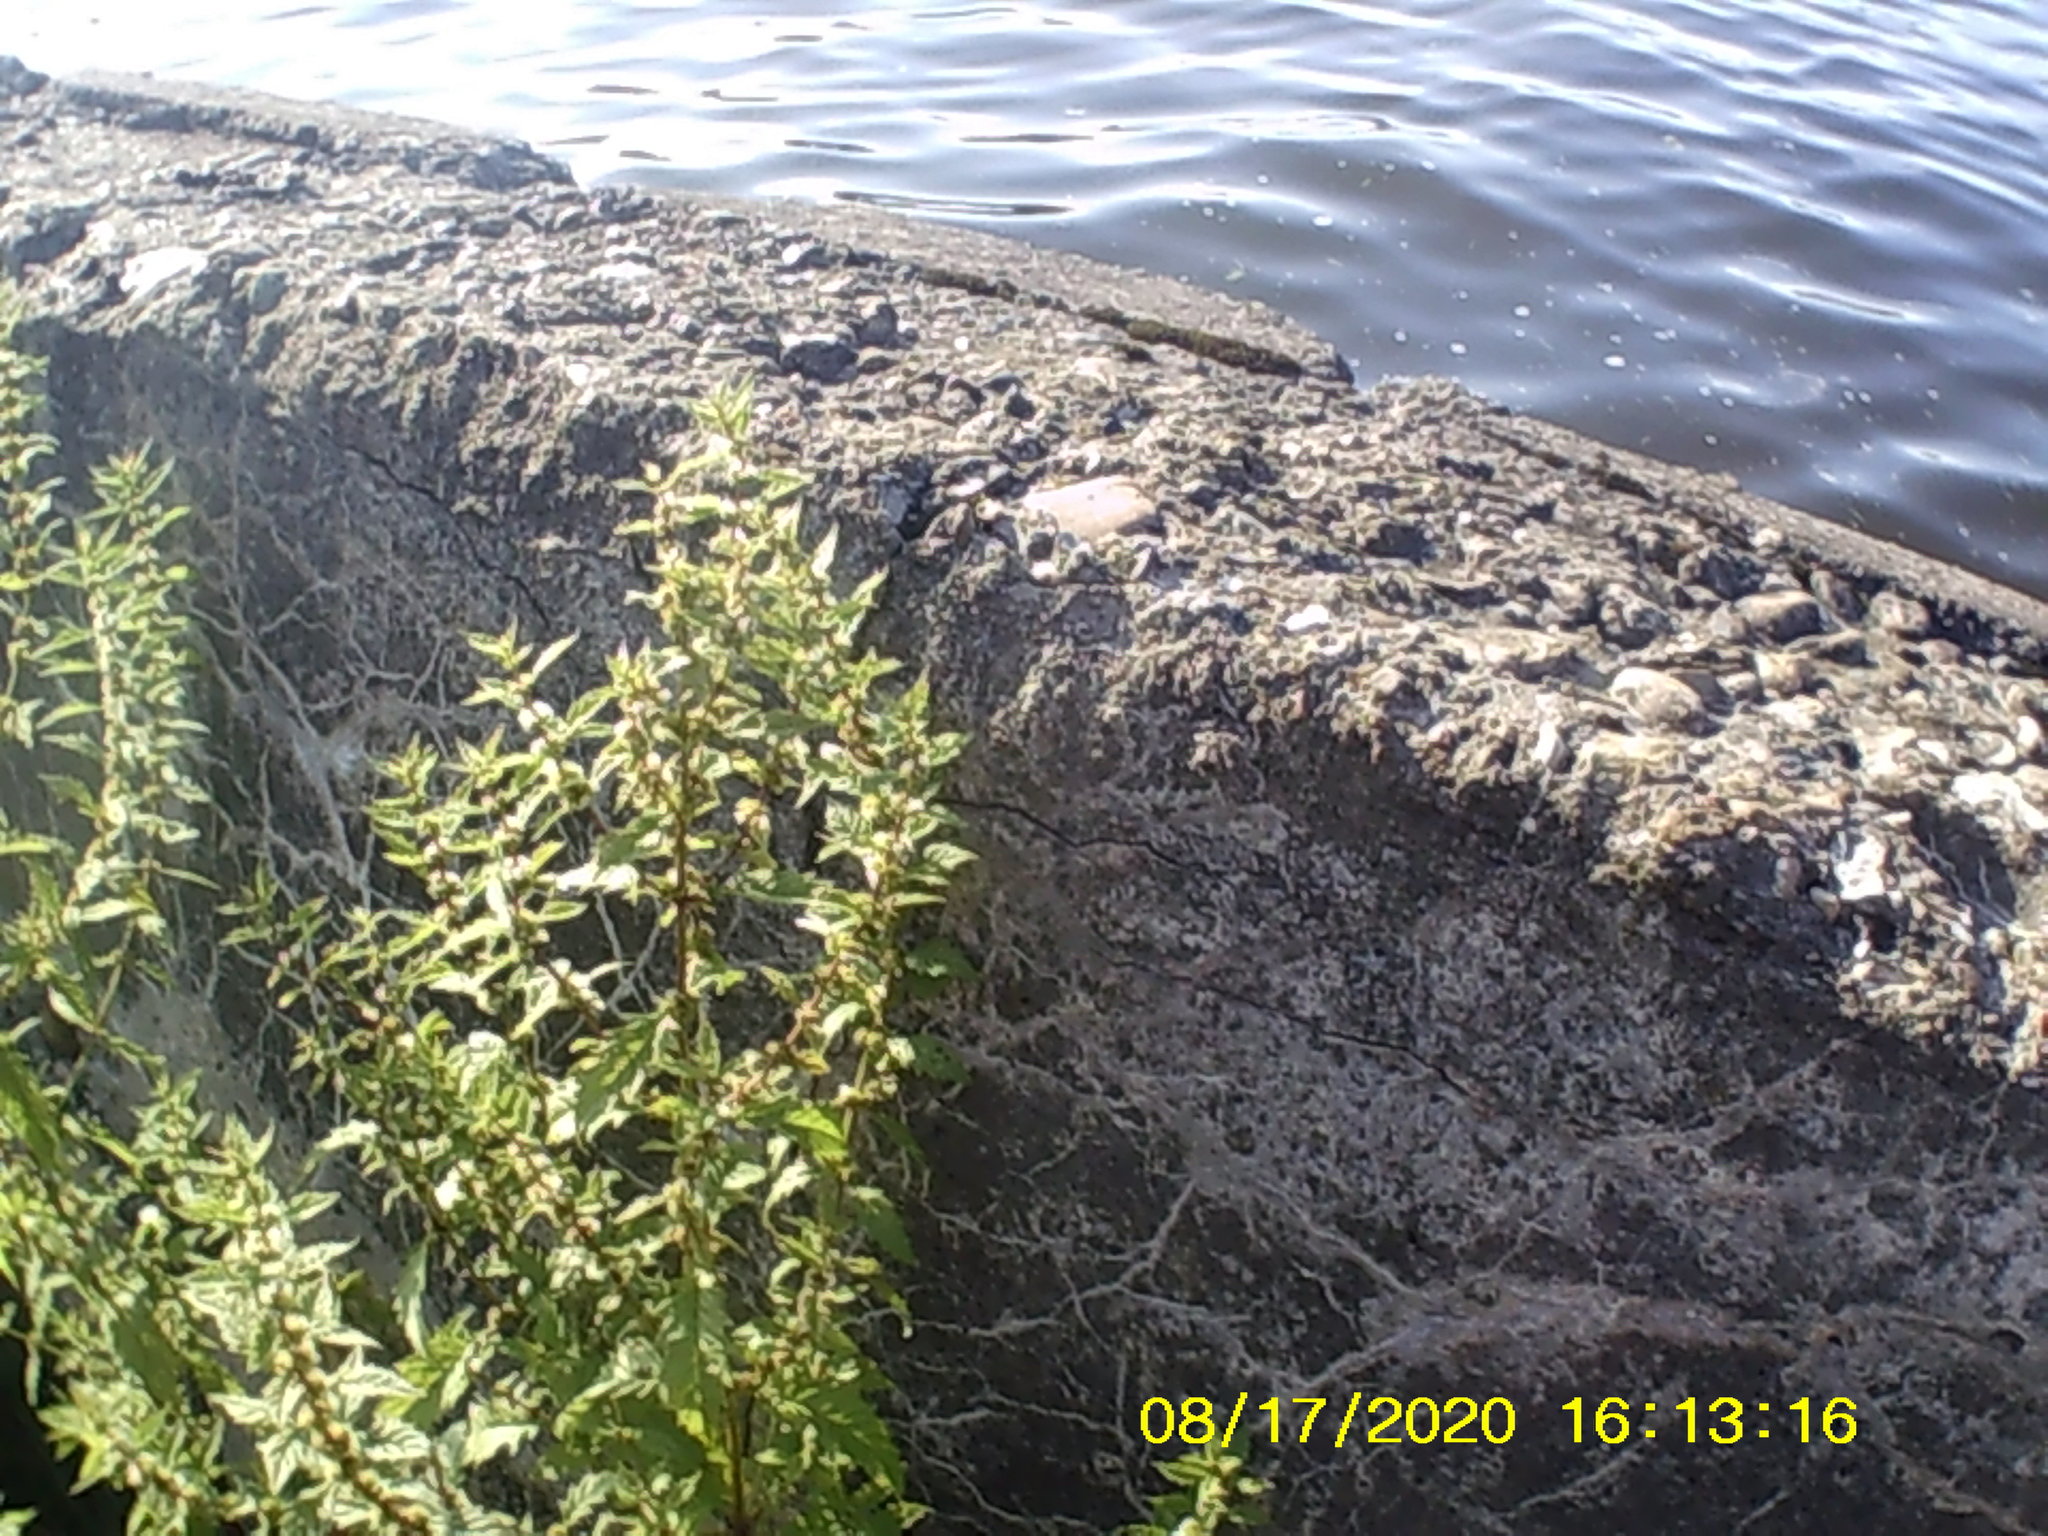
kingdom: Plantae
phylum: Tracheophyta
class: Magnoliopsida
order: Lamiales
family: Lamiaceae
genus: Lycopus
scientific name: Lycopus europaeus
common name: European bugleweed
